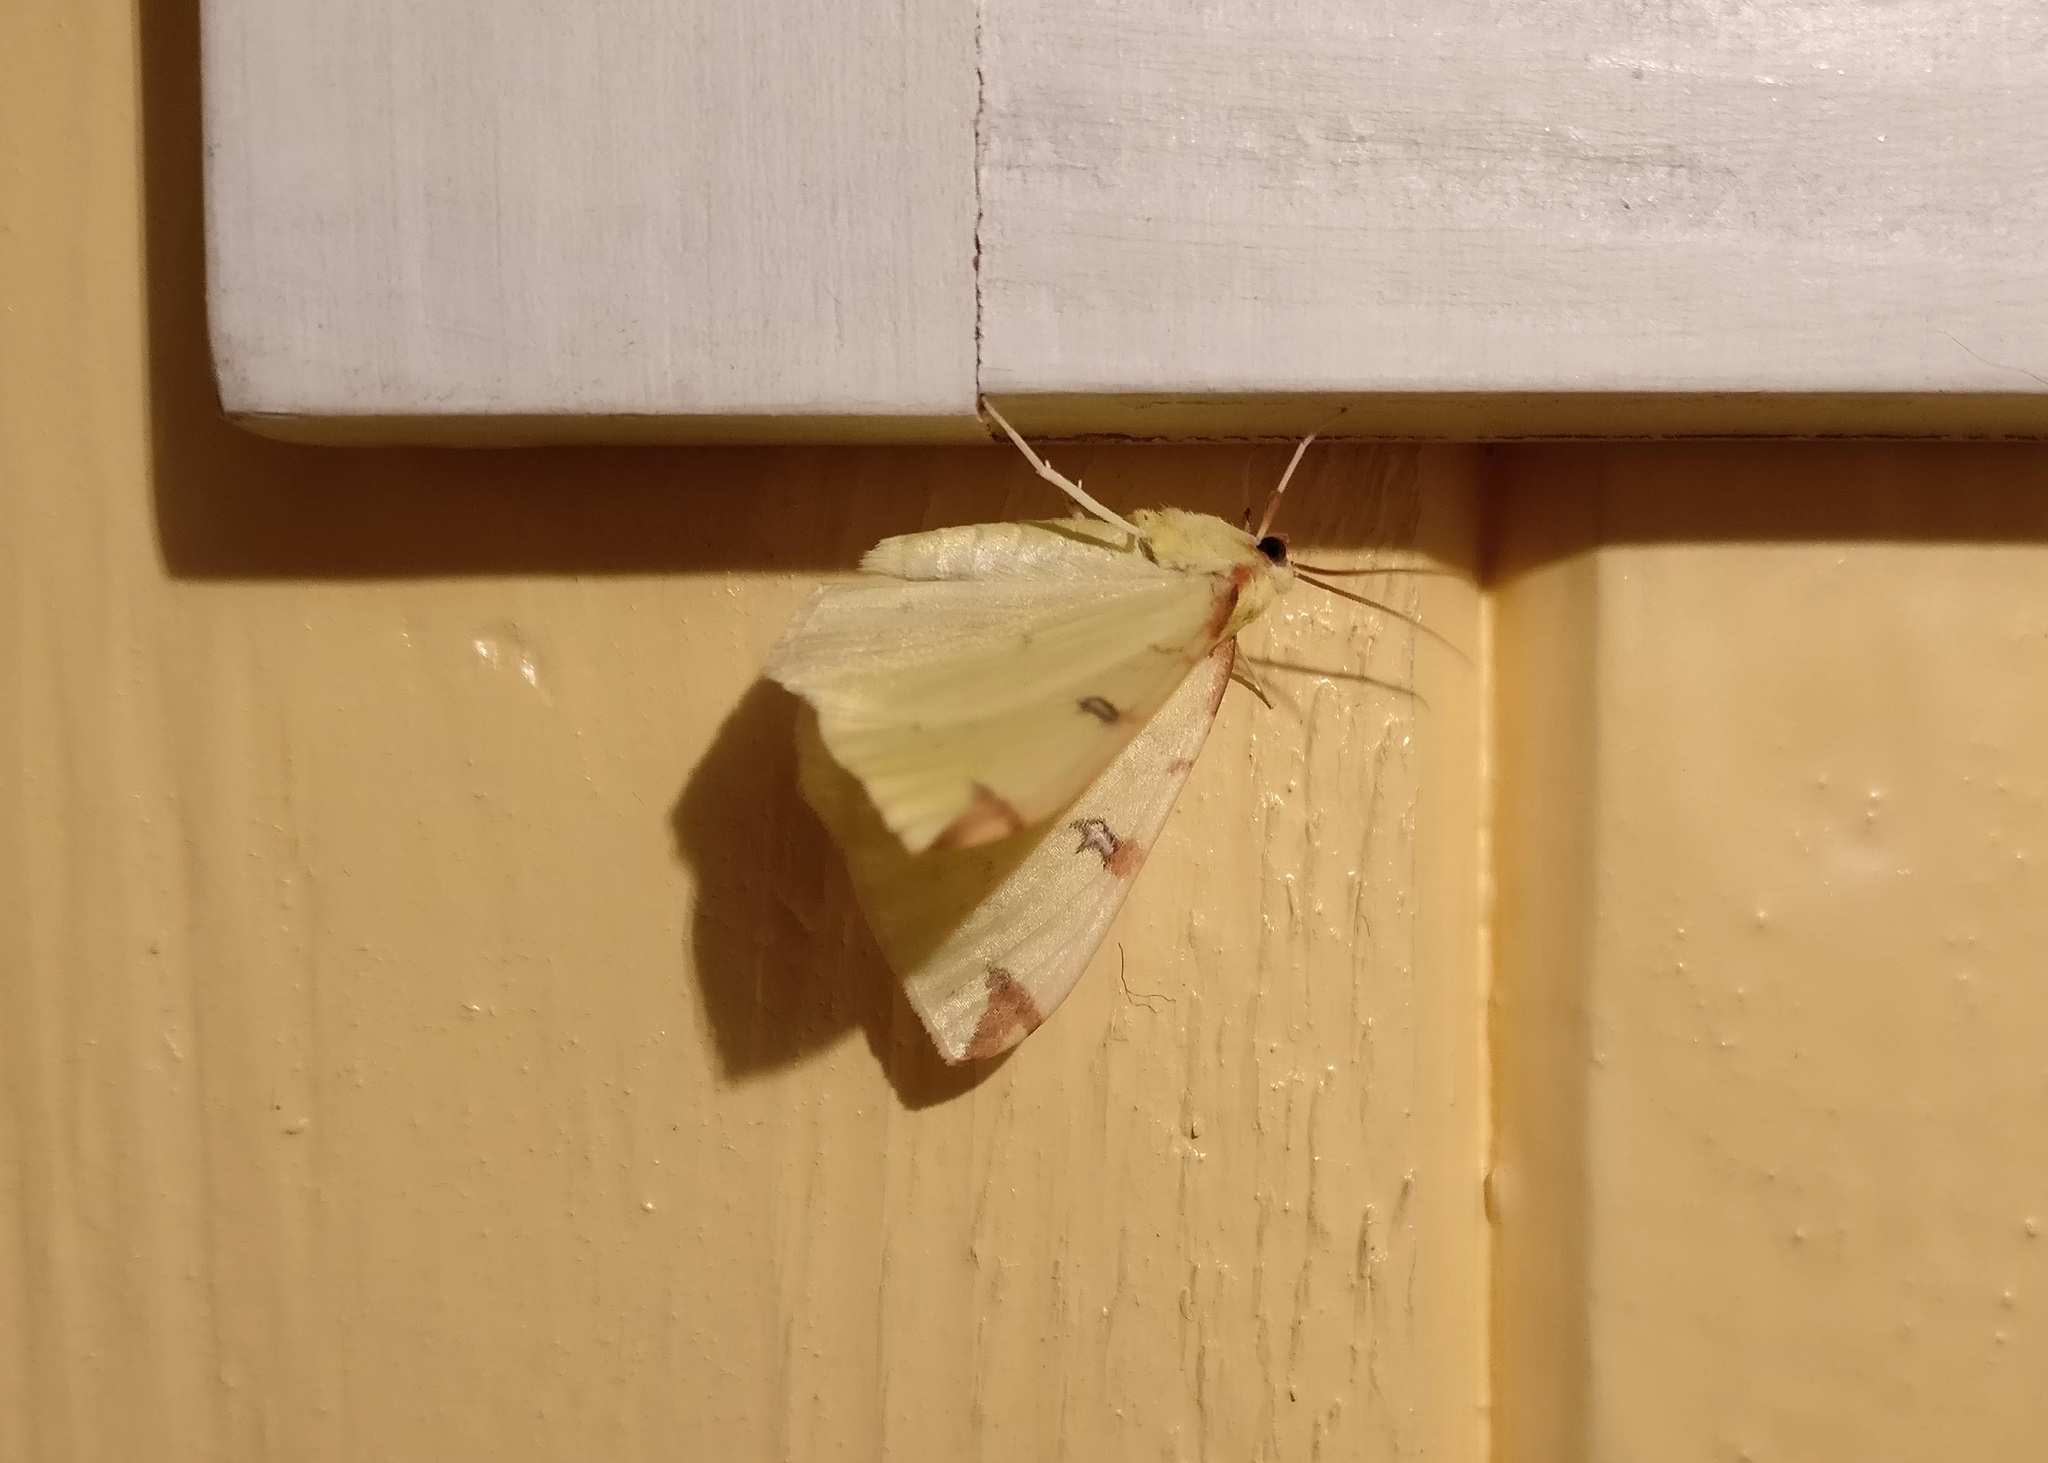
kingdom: Animalia
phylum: Arthropoda
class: Insecta
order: Lepidoptera
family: Geometridae
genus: Opisthograptis
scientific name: Opisthograptis luteolata
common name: Brimstone moth
